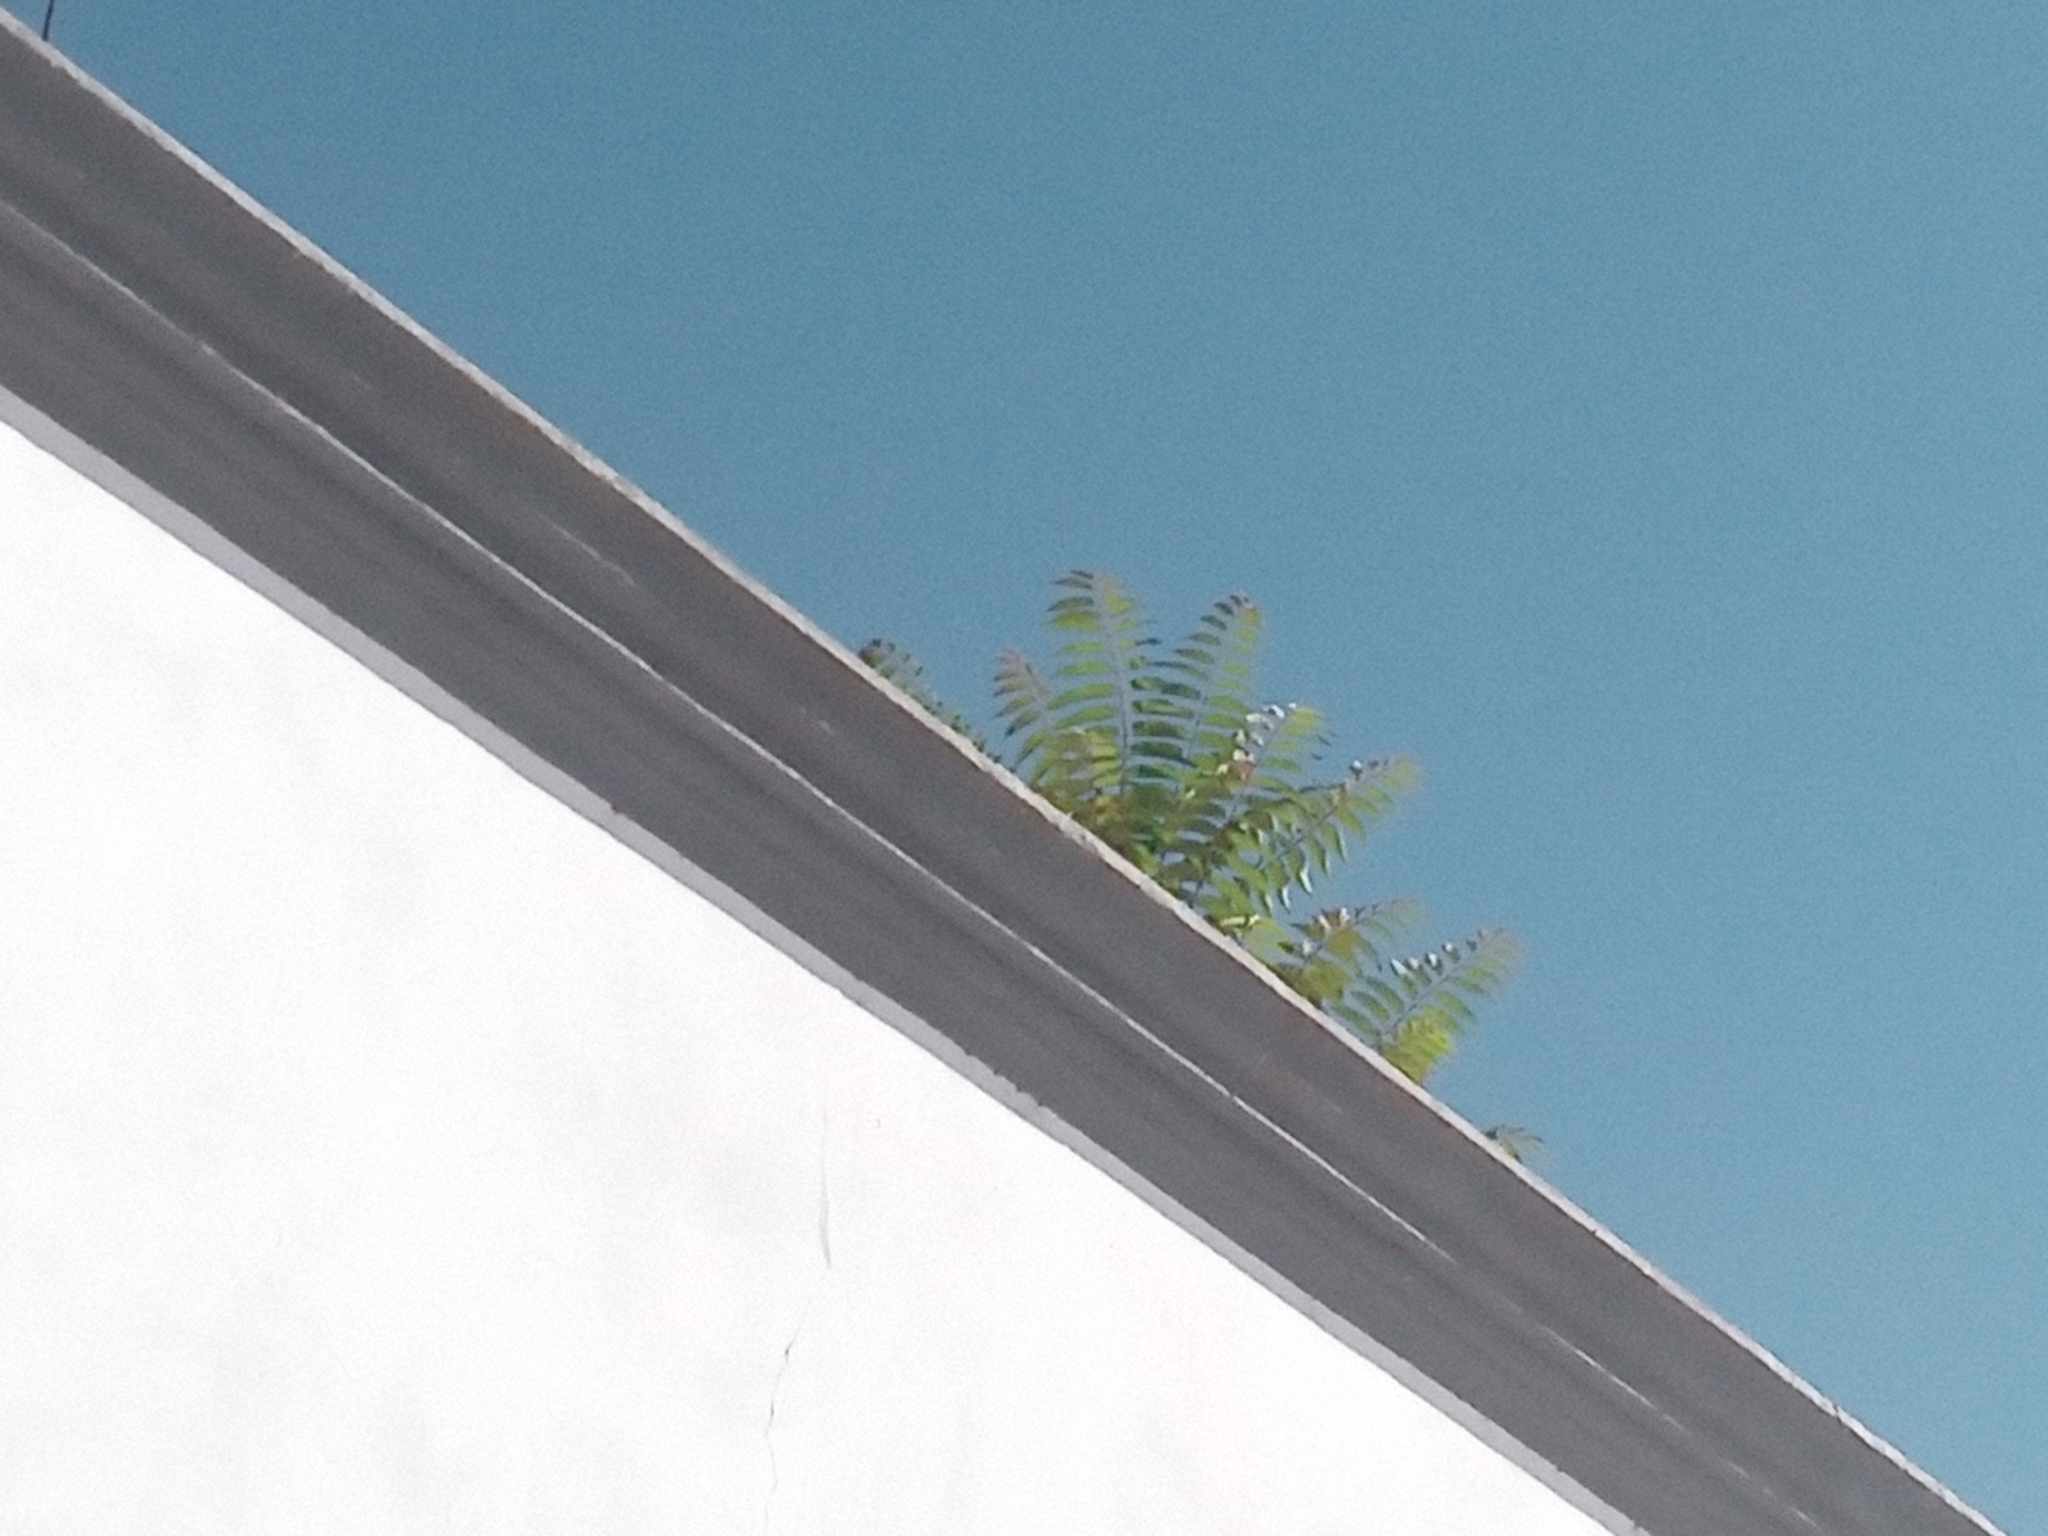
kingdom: Plantae
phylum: Tracheophyta
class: Magnoliopsida
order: Sapindales
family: Simaroubaceae
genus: Ailanthus
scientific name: Ailanthus altissima
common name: Tree-of-heaven
